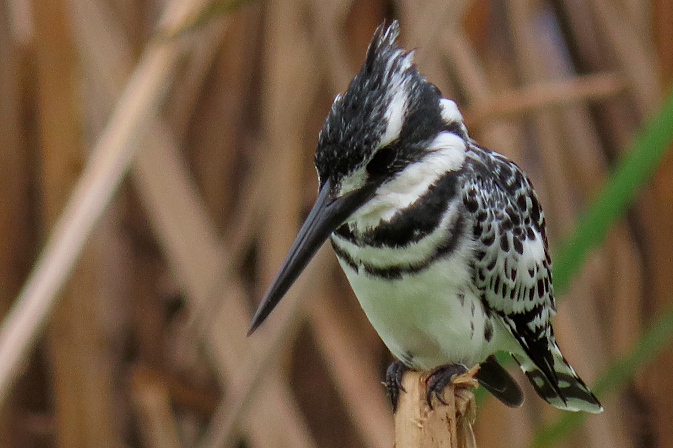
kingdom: Animalia
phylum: Chordata
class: Aves
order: Coraciiformes
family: Alcedinidae
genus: Ceryle
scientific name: Ceryle rudis
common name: Pied kingfisher
